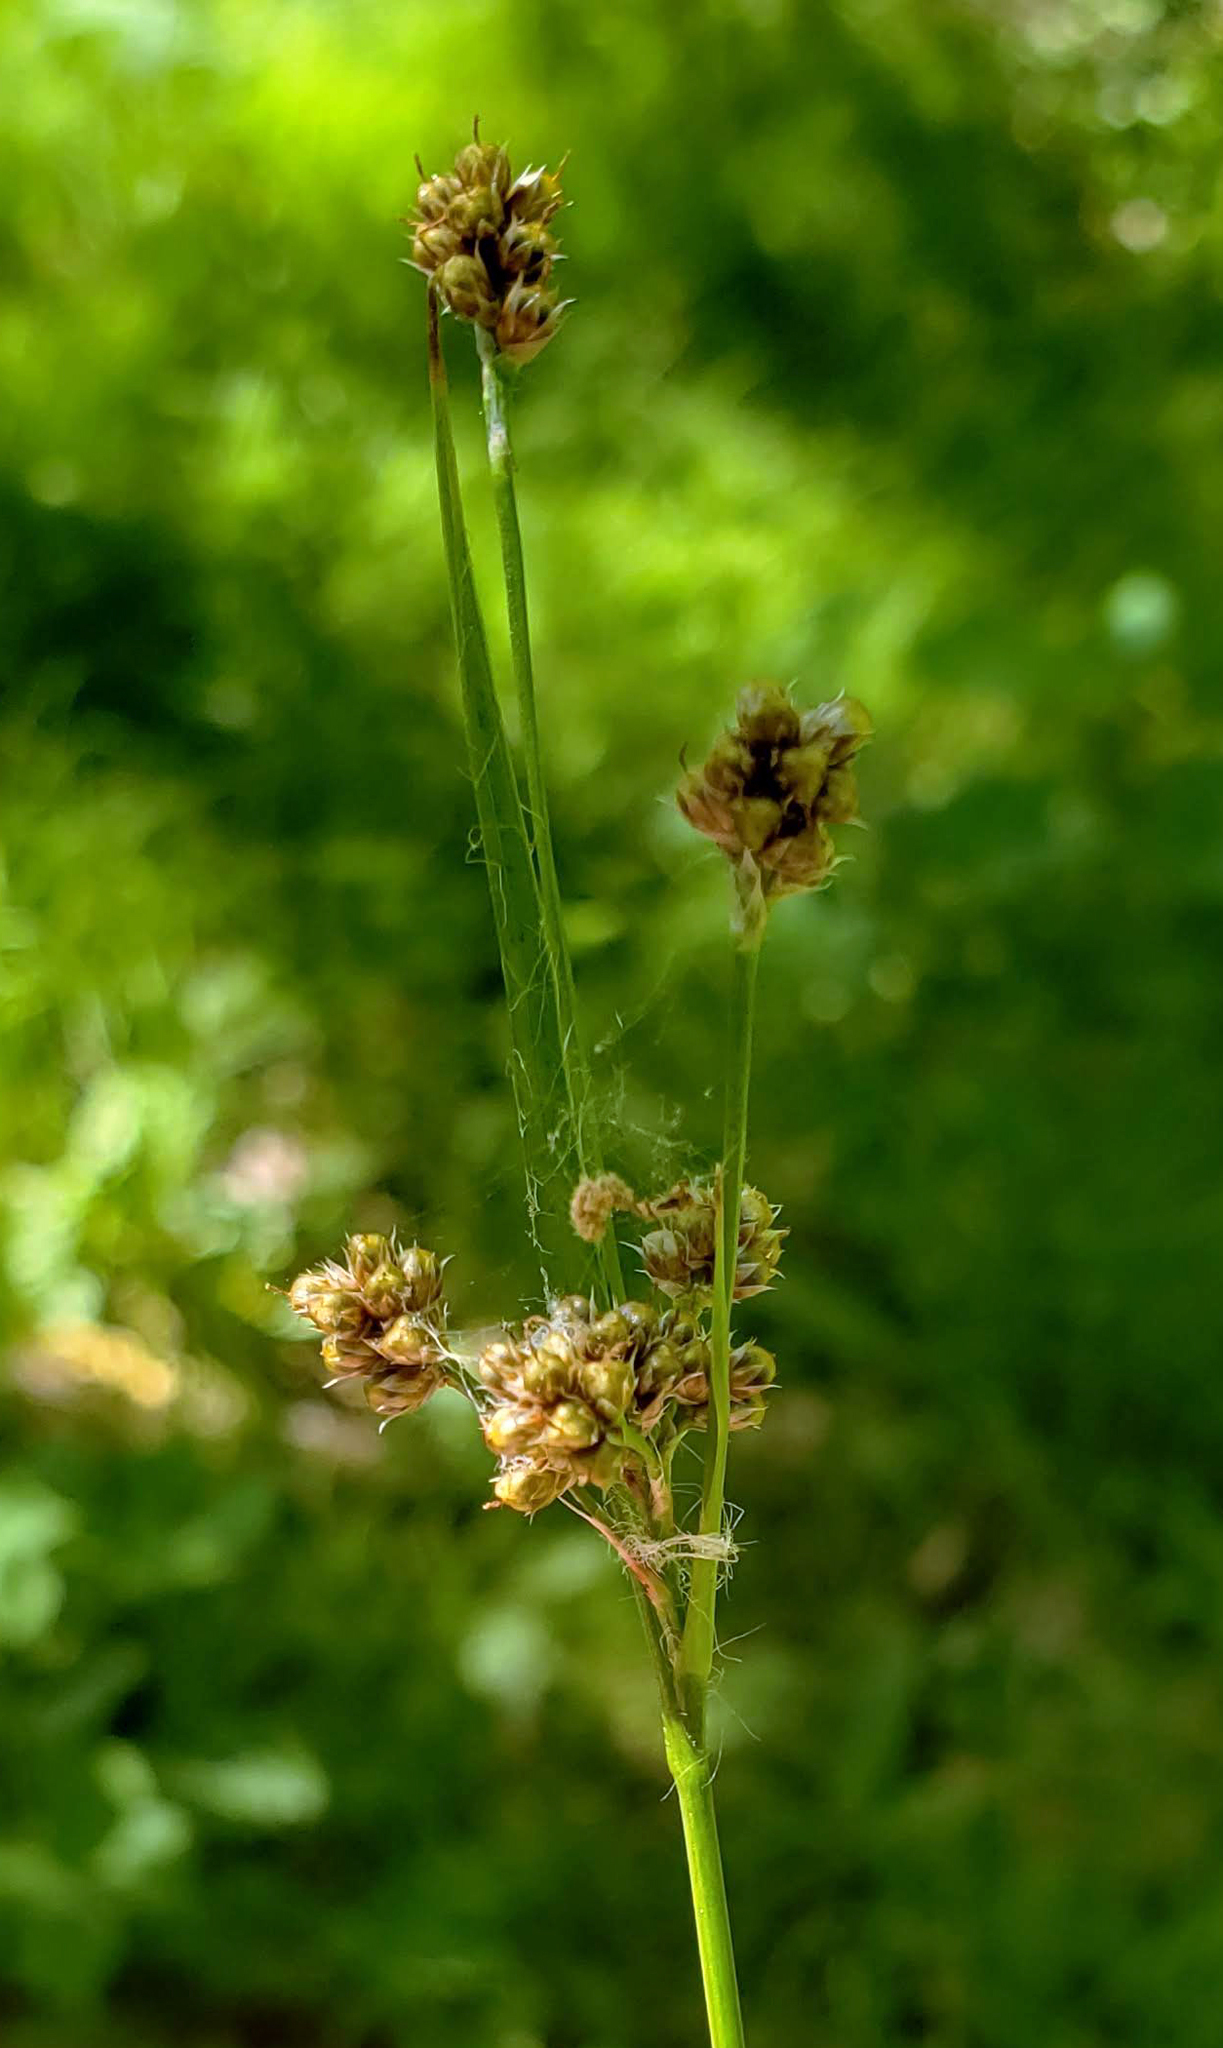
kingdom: Plantae
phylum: Tracheophyta
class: Liliopsida
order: Poales
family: Juncaceae
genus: Luzula
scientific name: Luzula multiflora
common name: Heath wood-rush
